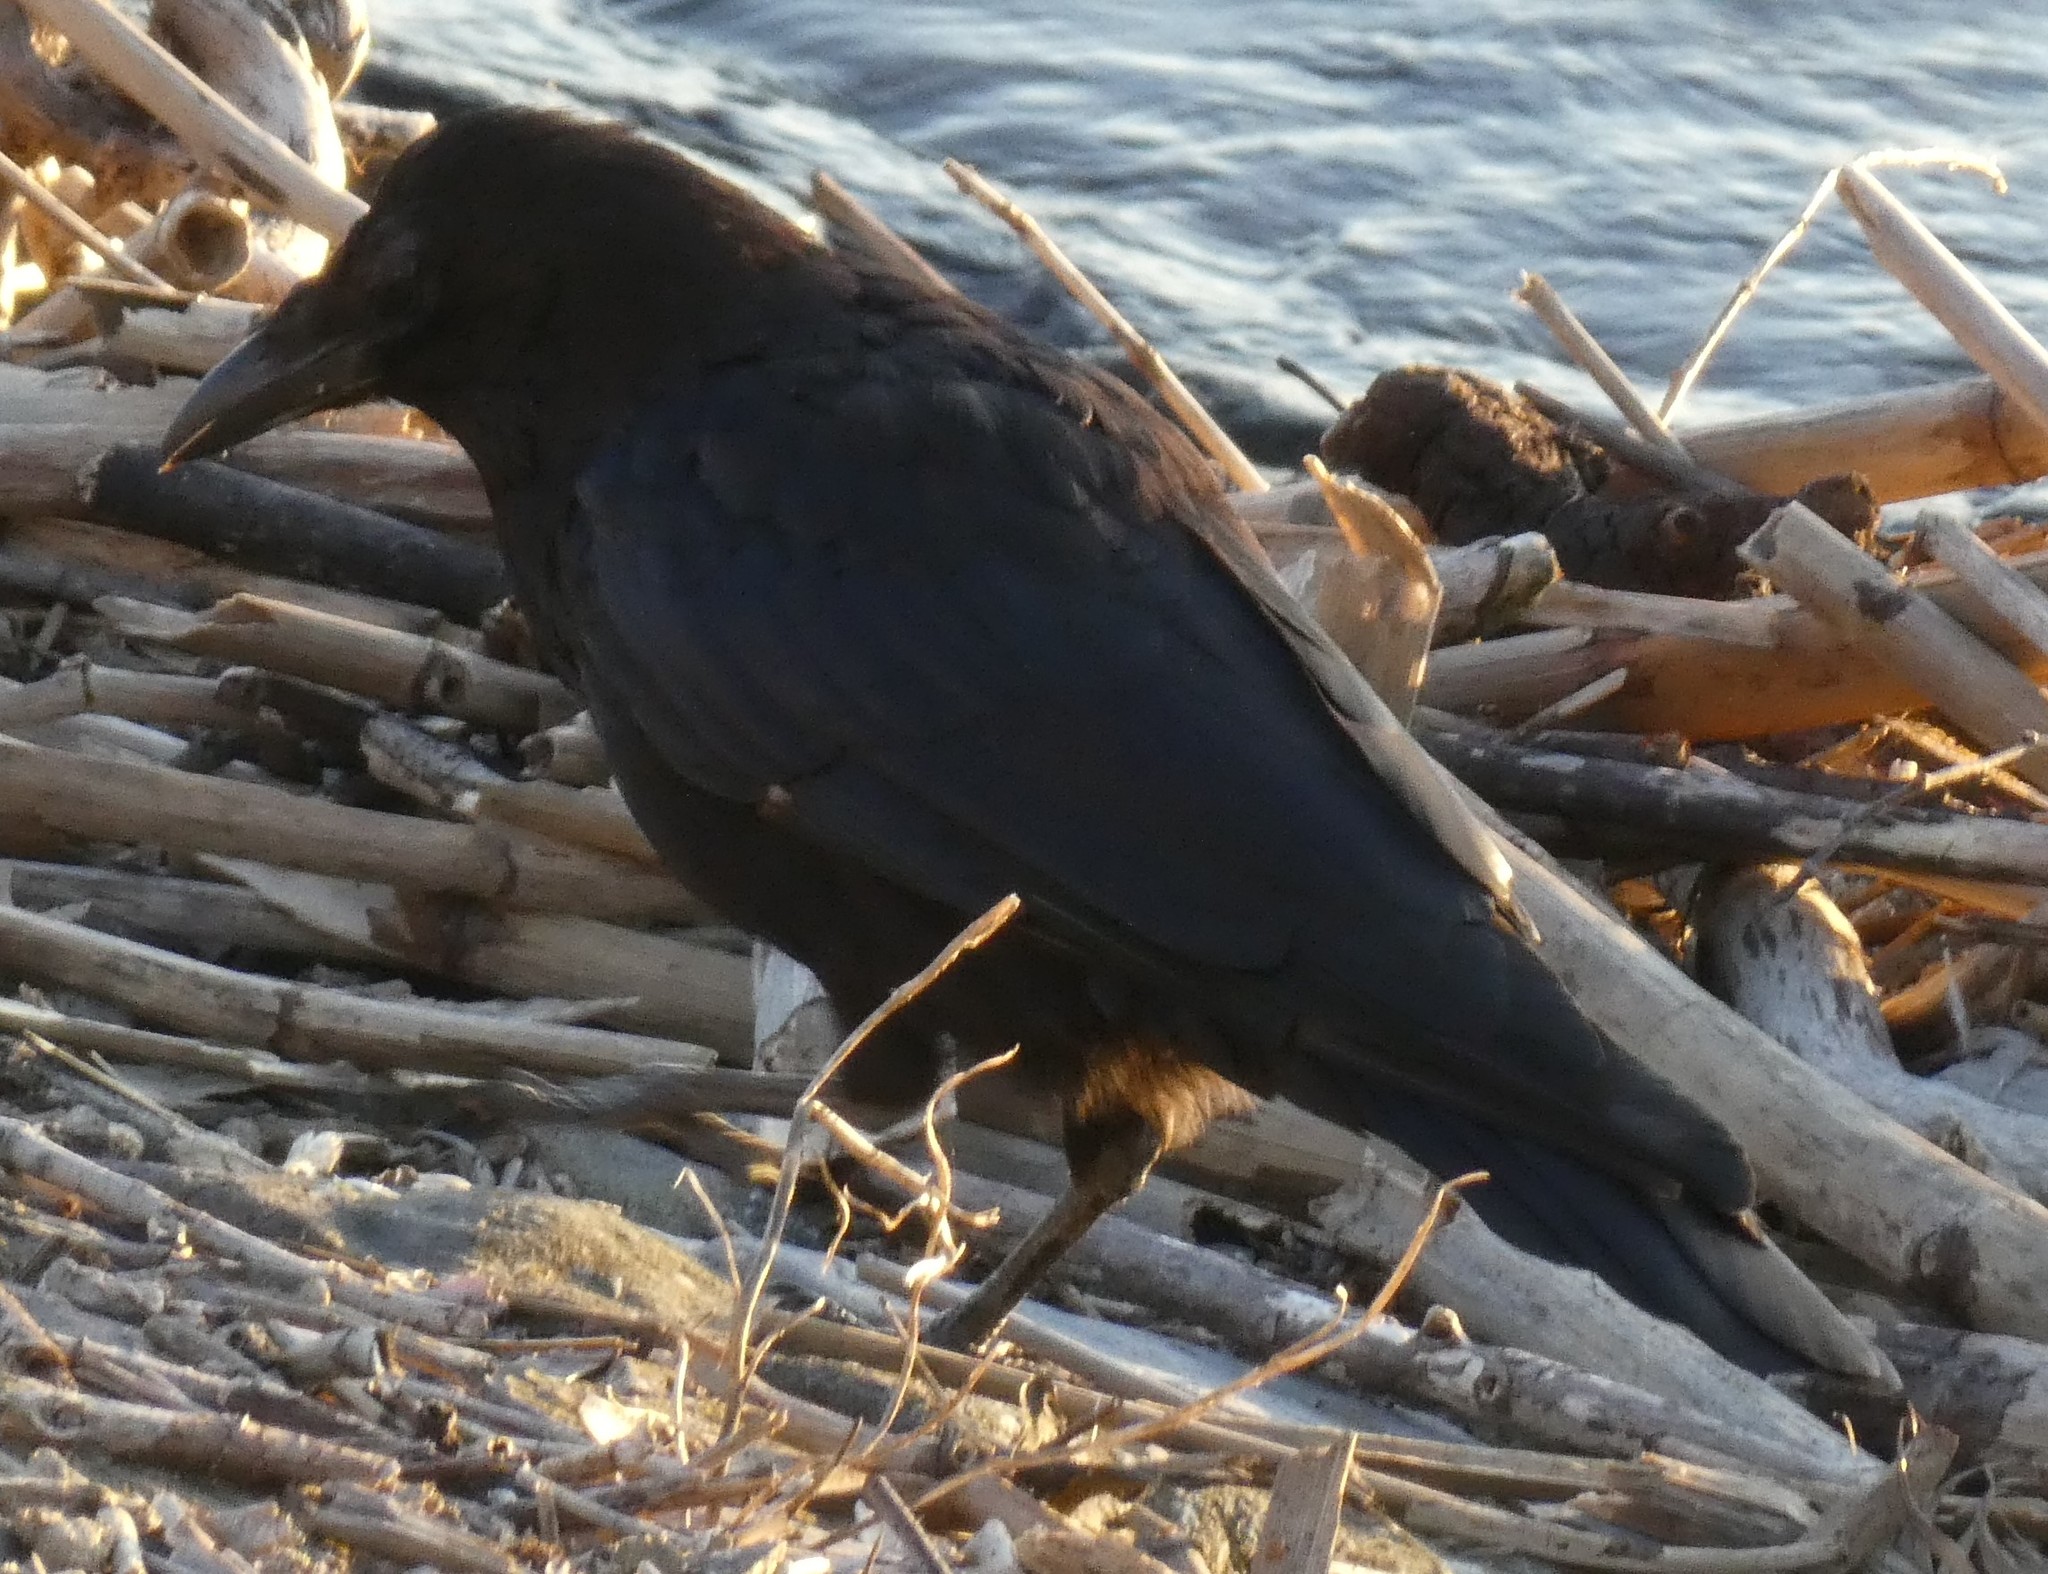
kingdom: Animalia
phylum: Chordata
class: Aves
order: Passeriformes
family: Corvidae
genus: Corvus
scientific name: Corvus corone
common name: Carrion crow
